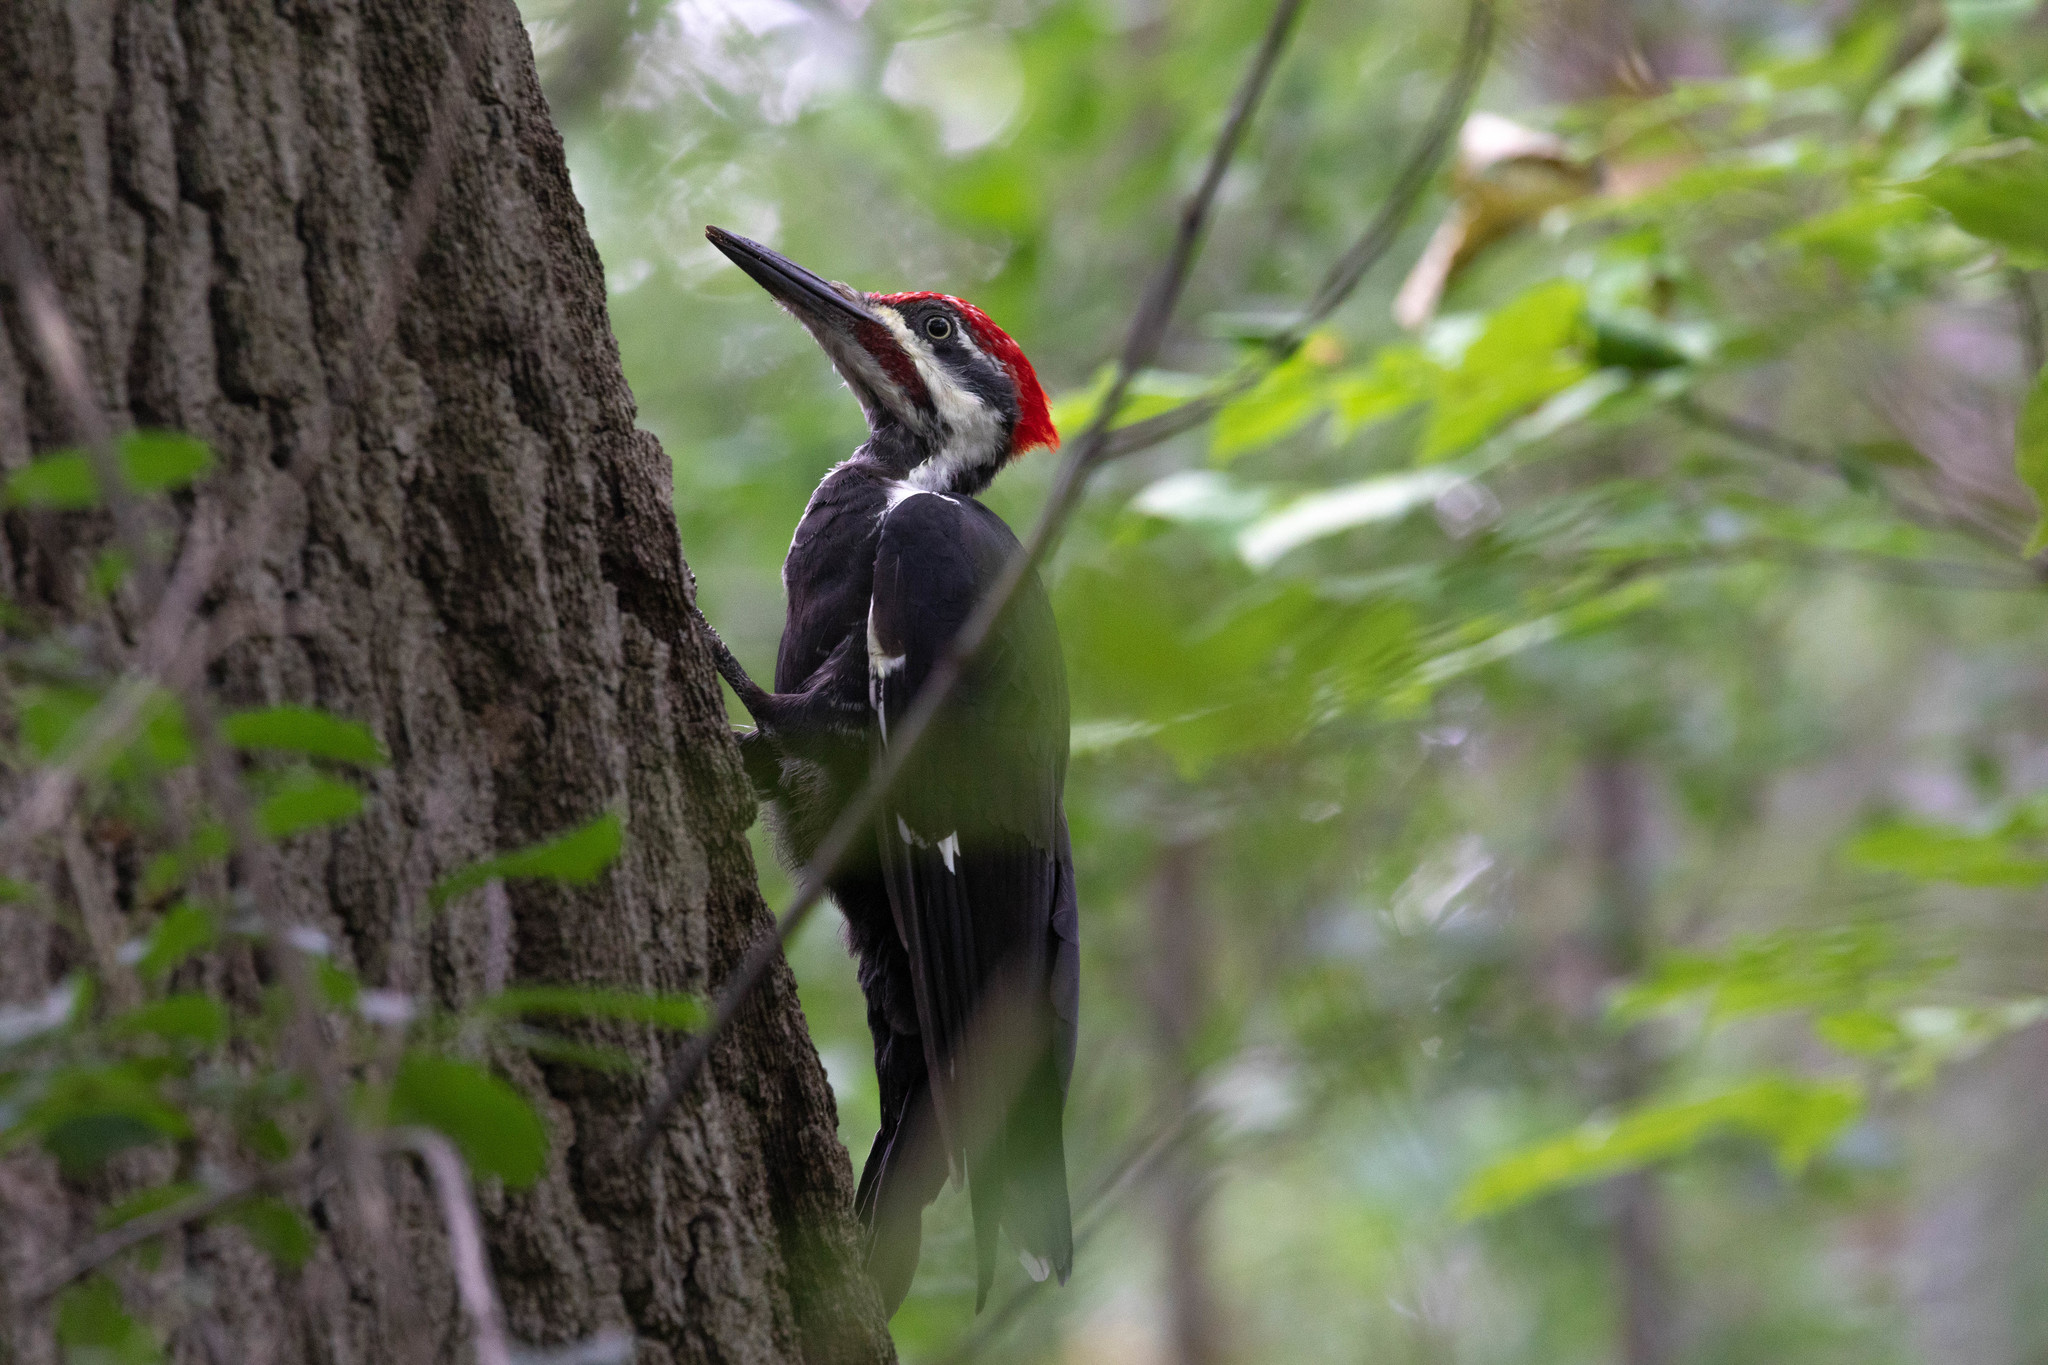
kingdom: Animalia
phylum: Chordata
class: Aves
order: Piciformes
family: Picidae
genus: Dryocopus
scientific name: Dryocopus pileatus
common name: Pileated woodpecker
